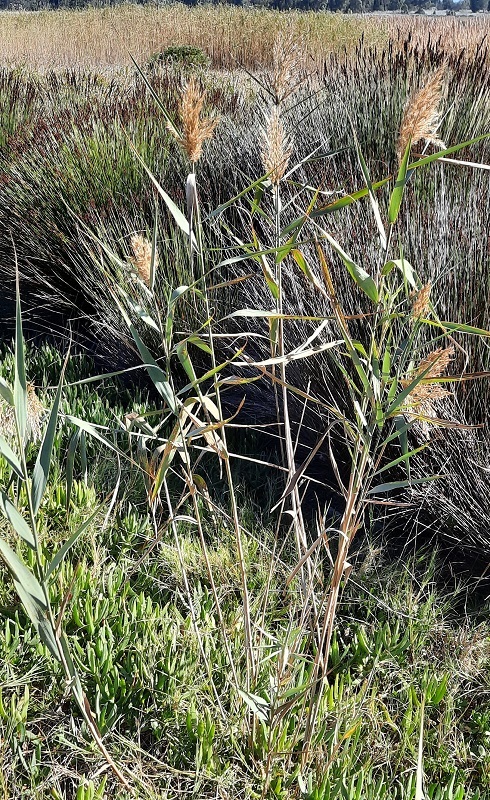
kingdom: Plantae
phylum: Tracheophyta
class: Liliopsida
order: Poales
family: Poaceae
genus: Phragmites
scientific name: Phragmites australis
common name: Common reed
